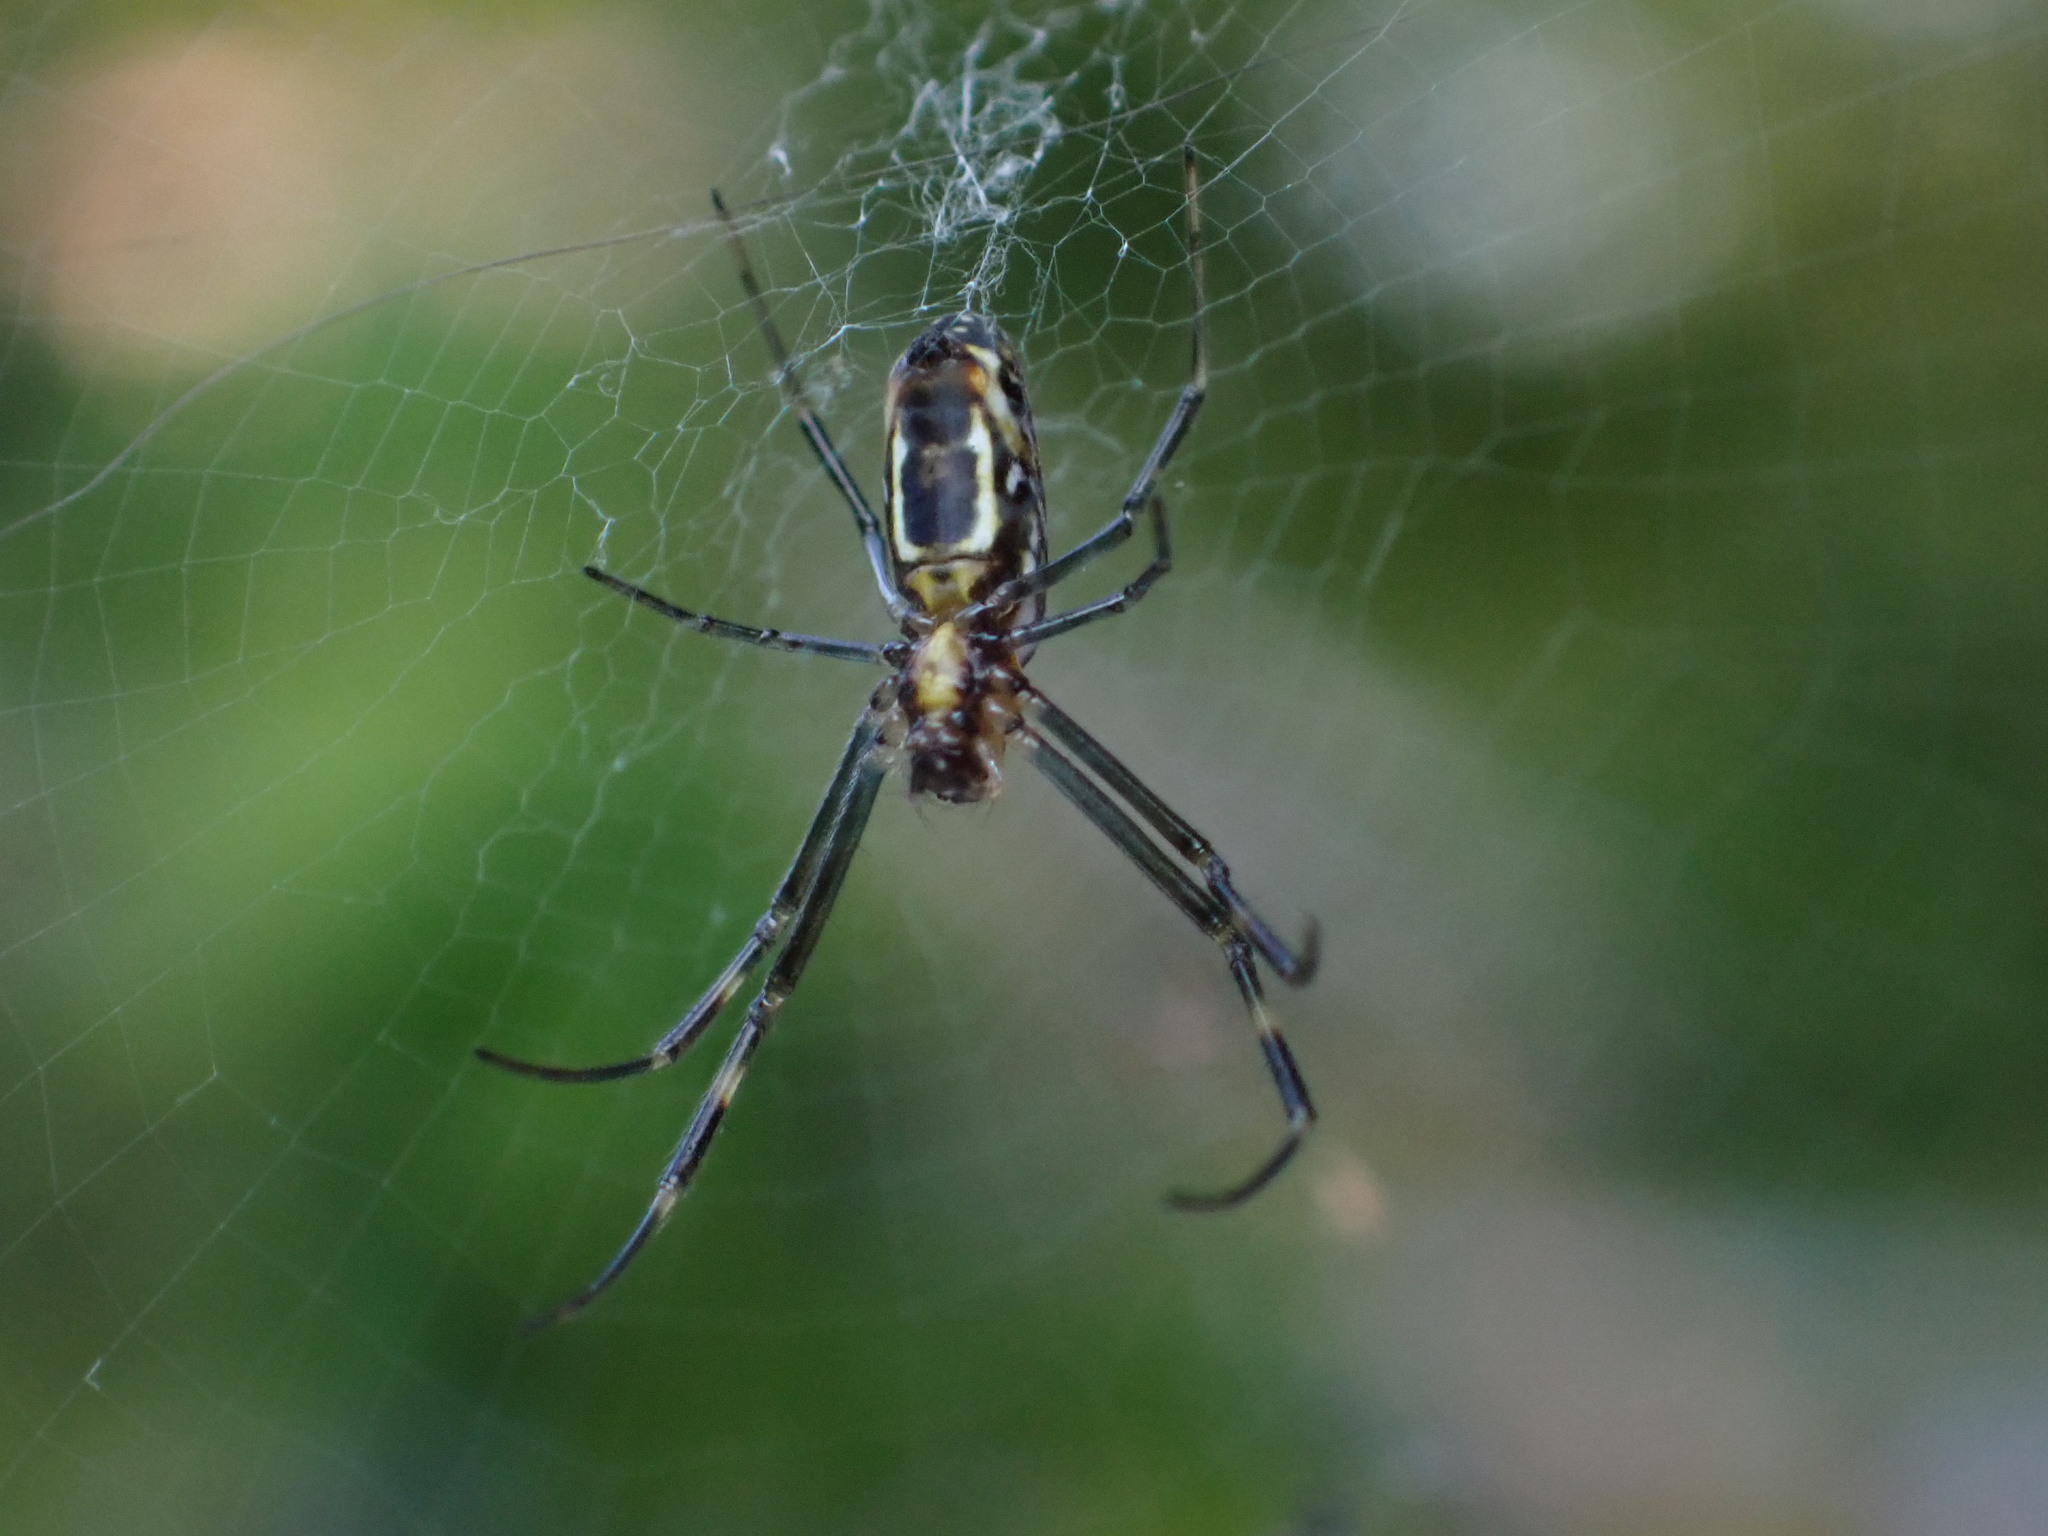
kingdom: Animalia
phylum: Arthropoda
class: Arachnida
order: Araneae
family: Araneidae
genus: Trichonephila
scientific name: Trichonephila clavipes
